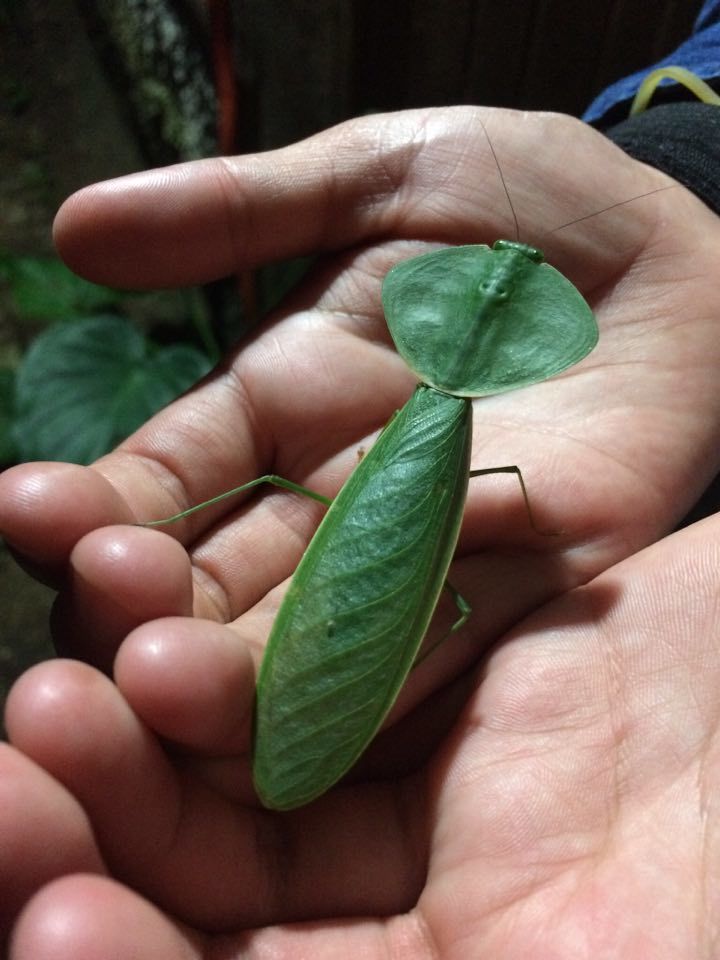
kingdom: Animalia
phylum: Arthropoda
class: Insecta
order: Mantodea
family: Mantidae
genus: Choeradodis
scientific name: Choeradodis rhombicollis
